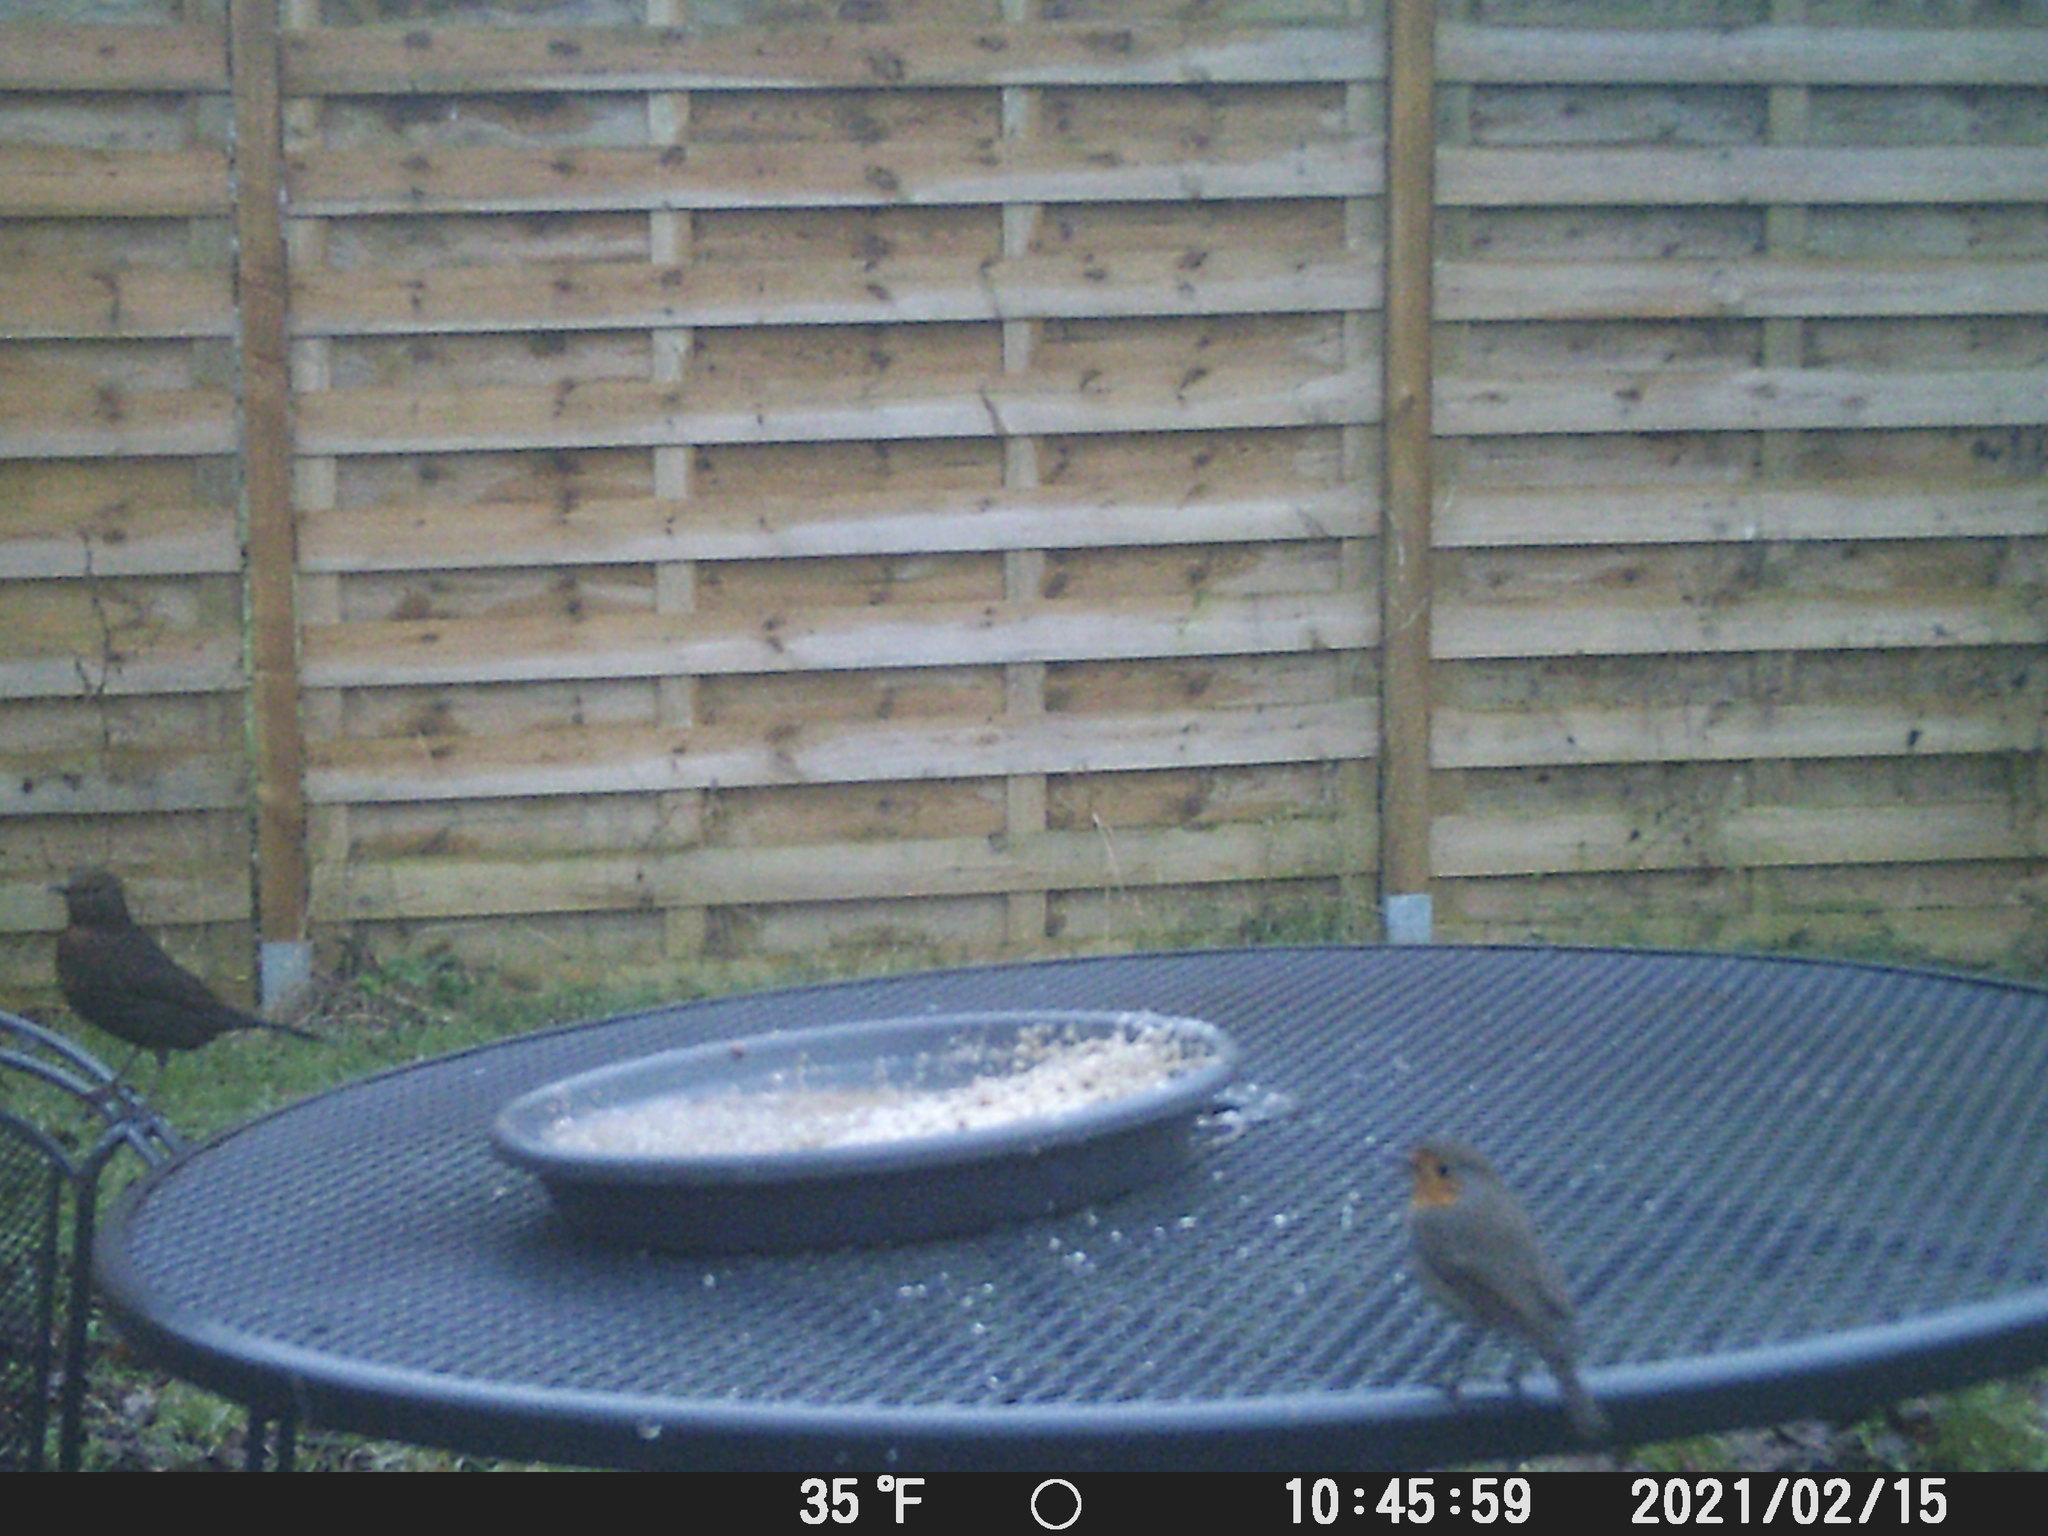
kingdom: Animalia
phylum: Chordata
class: Aves
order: Passeriformes
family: Muscicapidae
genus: Erithacus
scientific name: Erithacus rubecula
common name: European robin
